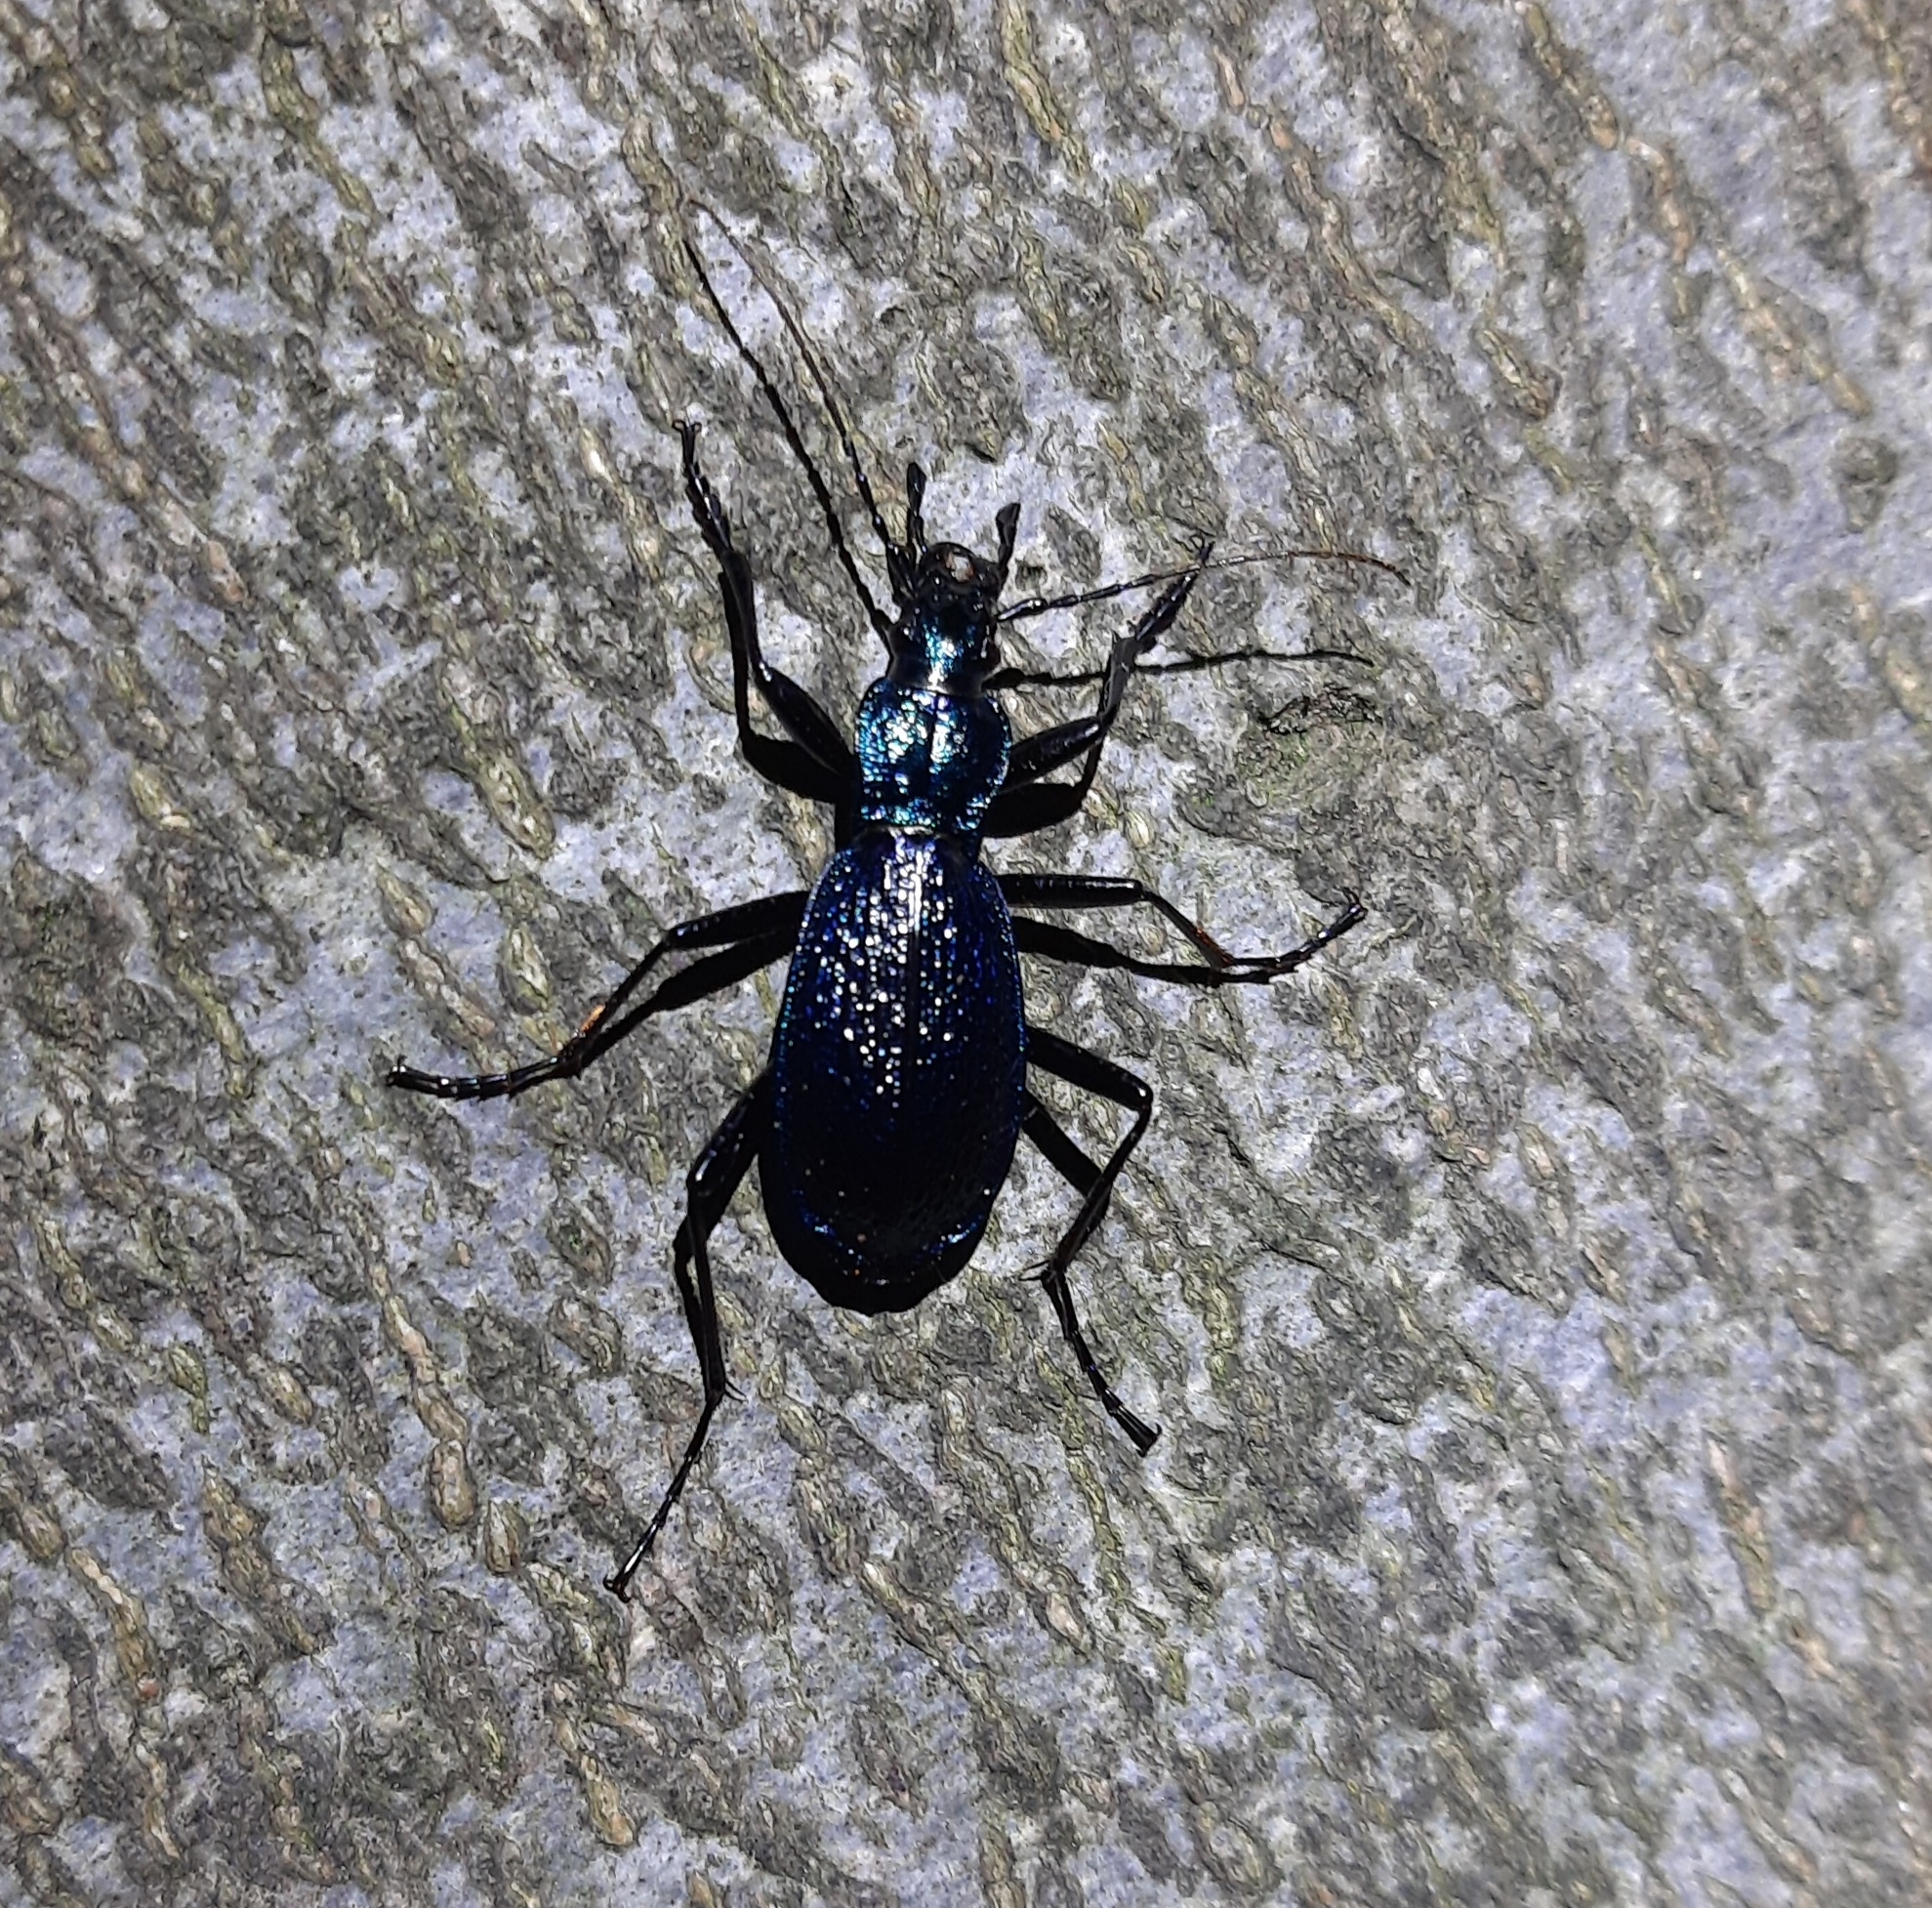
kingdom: Animalia
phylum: Arthropoda
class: Insecta
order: Coleoptera
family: Carabidae
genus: Carabus
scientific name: Carabus intricatus
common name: Blue ground beetle
